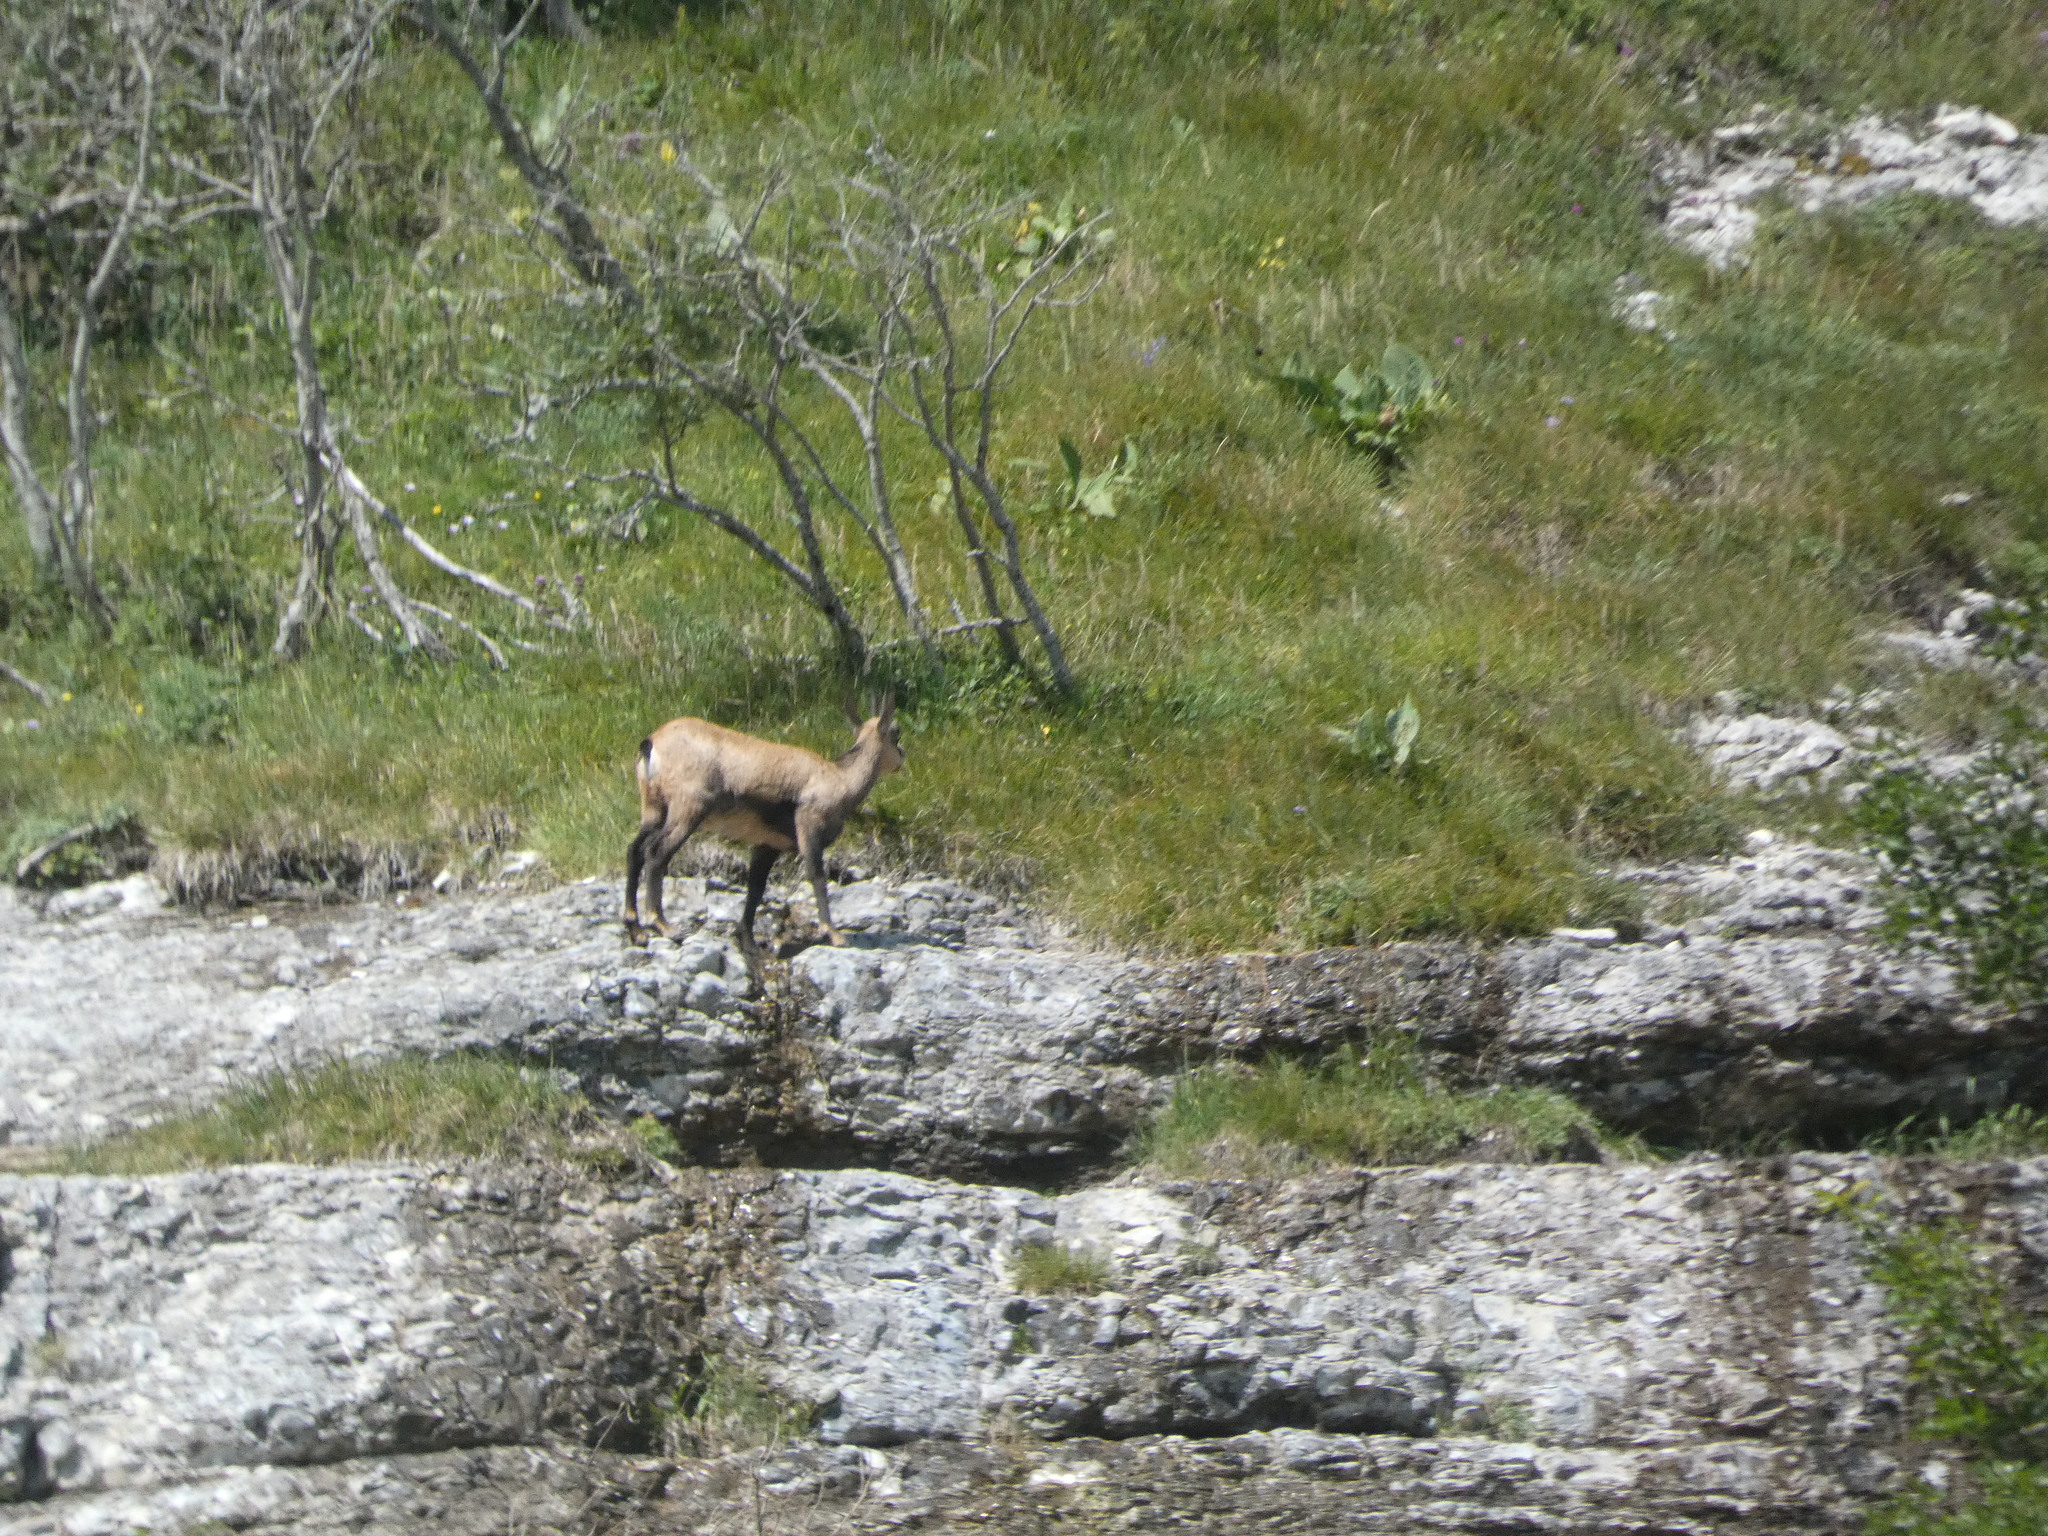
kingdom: Animalia
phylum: Chordata
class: Mammalia
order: Artiodactyla
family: Bovidae
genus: Rupicapra
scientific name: Rupicapra rupicapra
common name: Chamois
